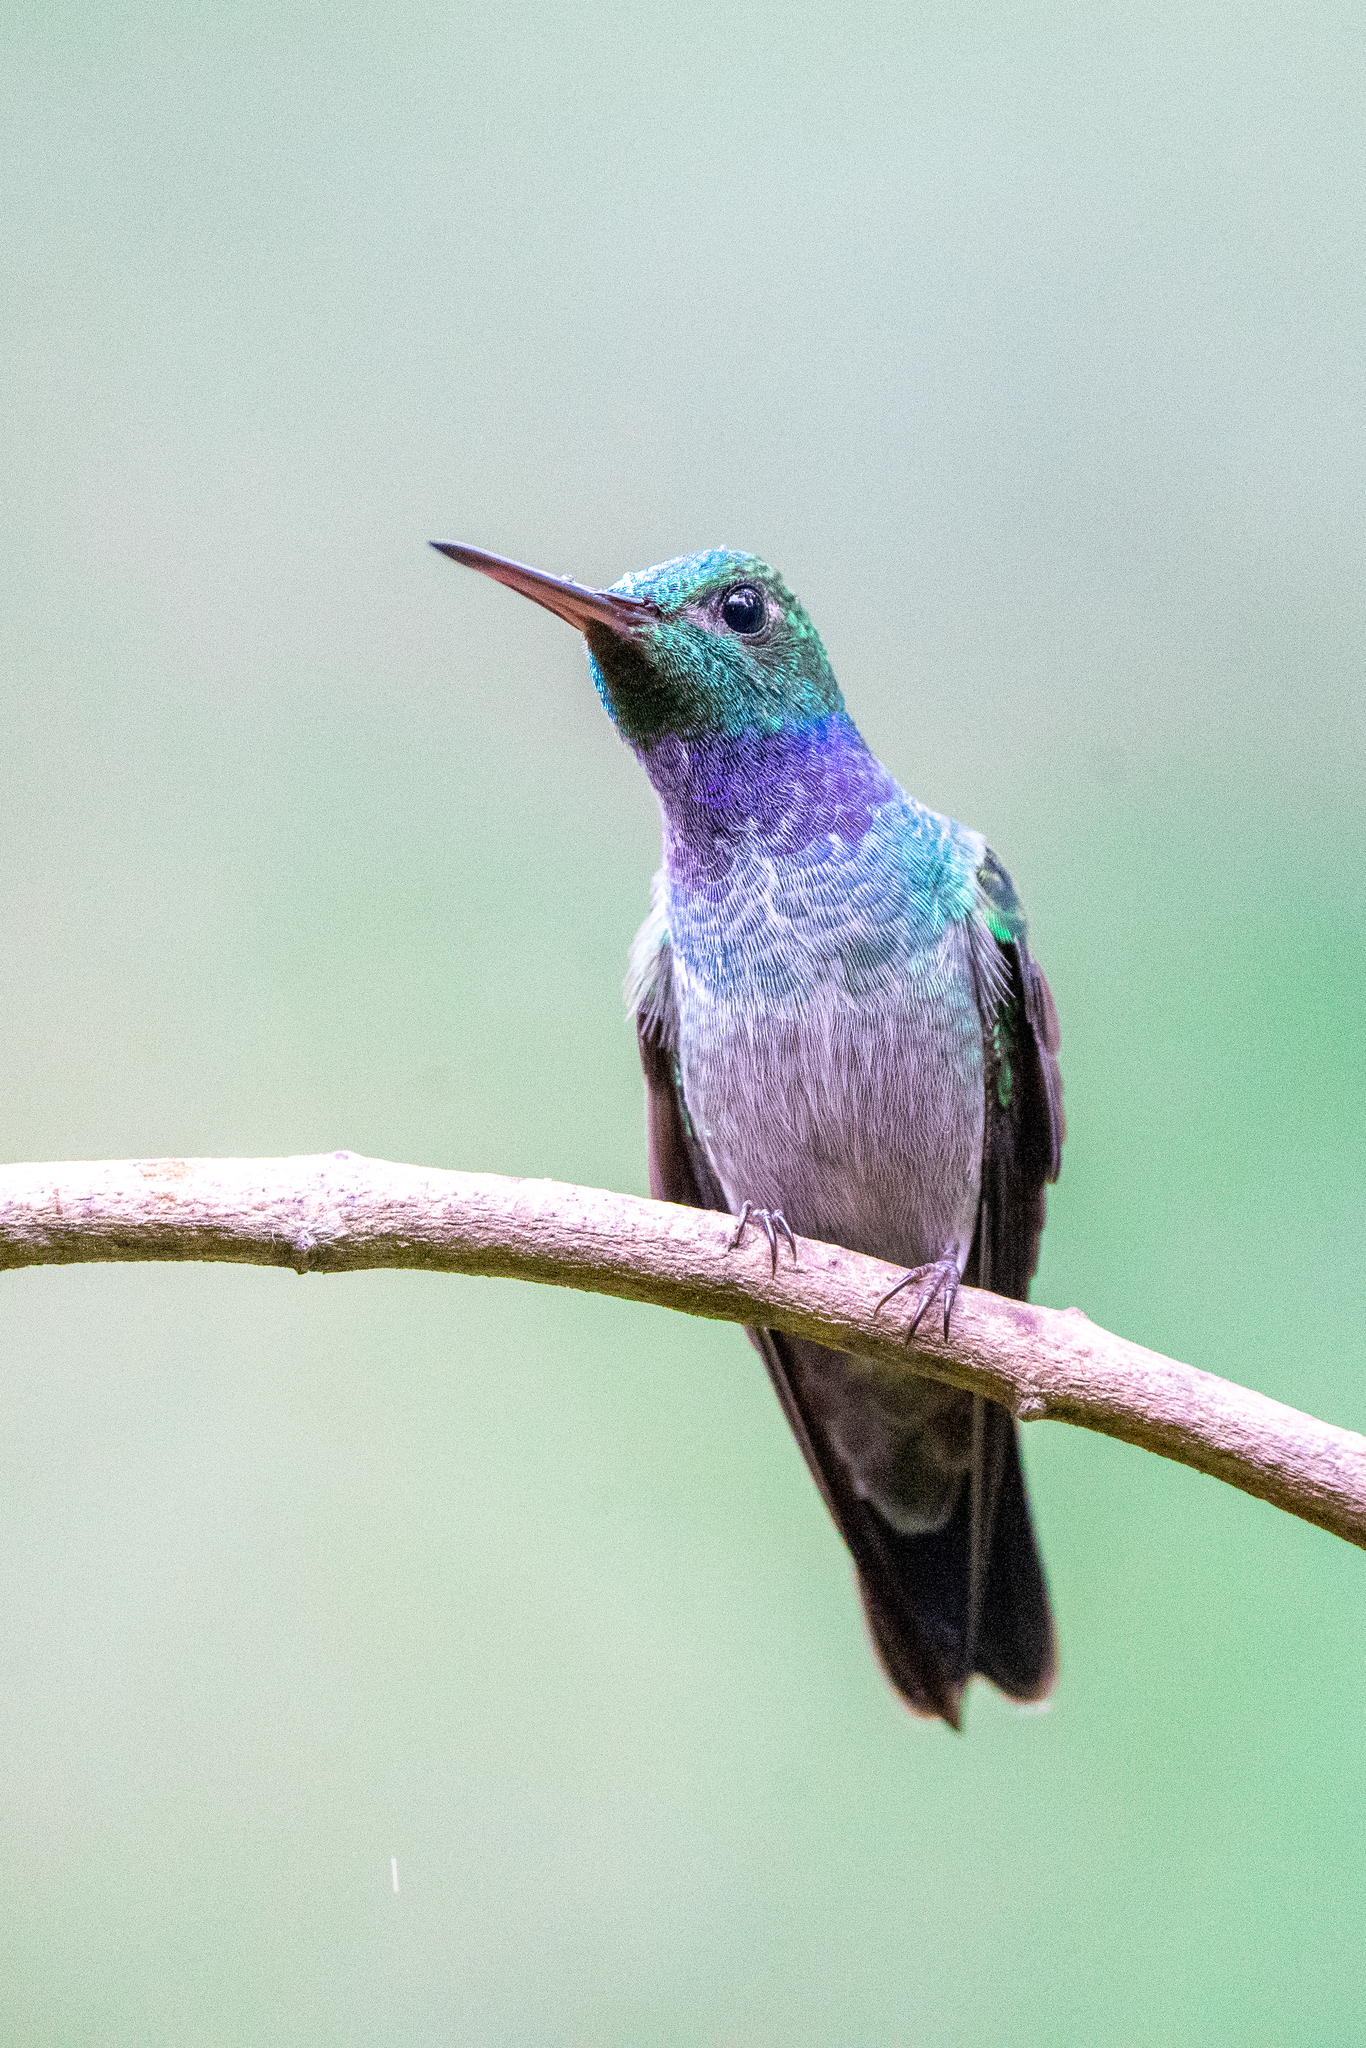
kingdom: Animalia
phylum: Chordata
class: Aves
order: Apodiformes
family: Trochilidae
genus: Polyerata
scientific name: Polyerata amabilis
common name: Blue-chested hummingbird
